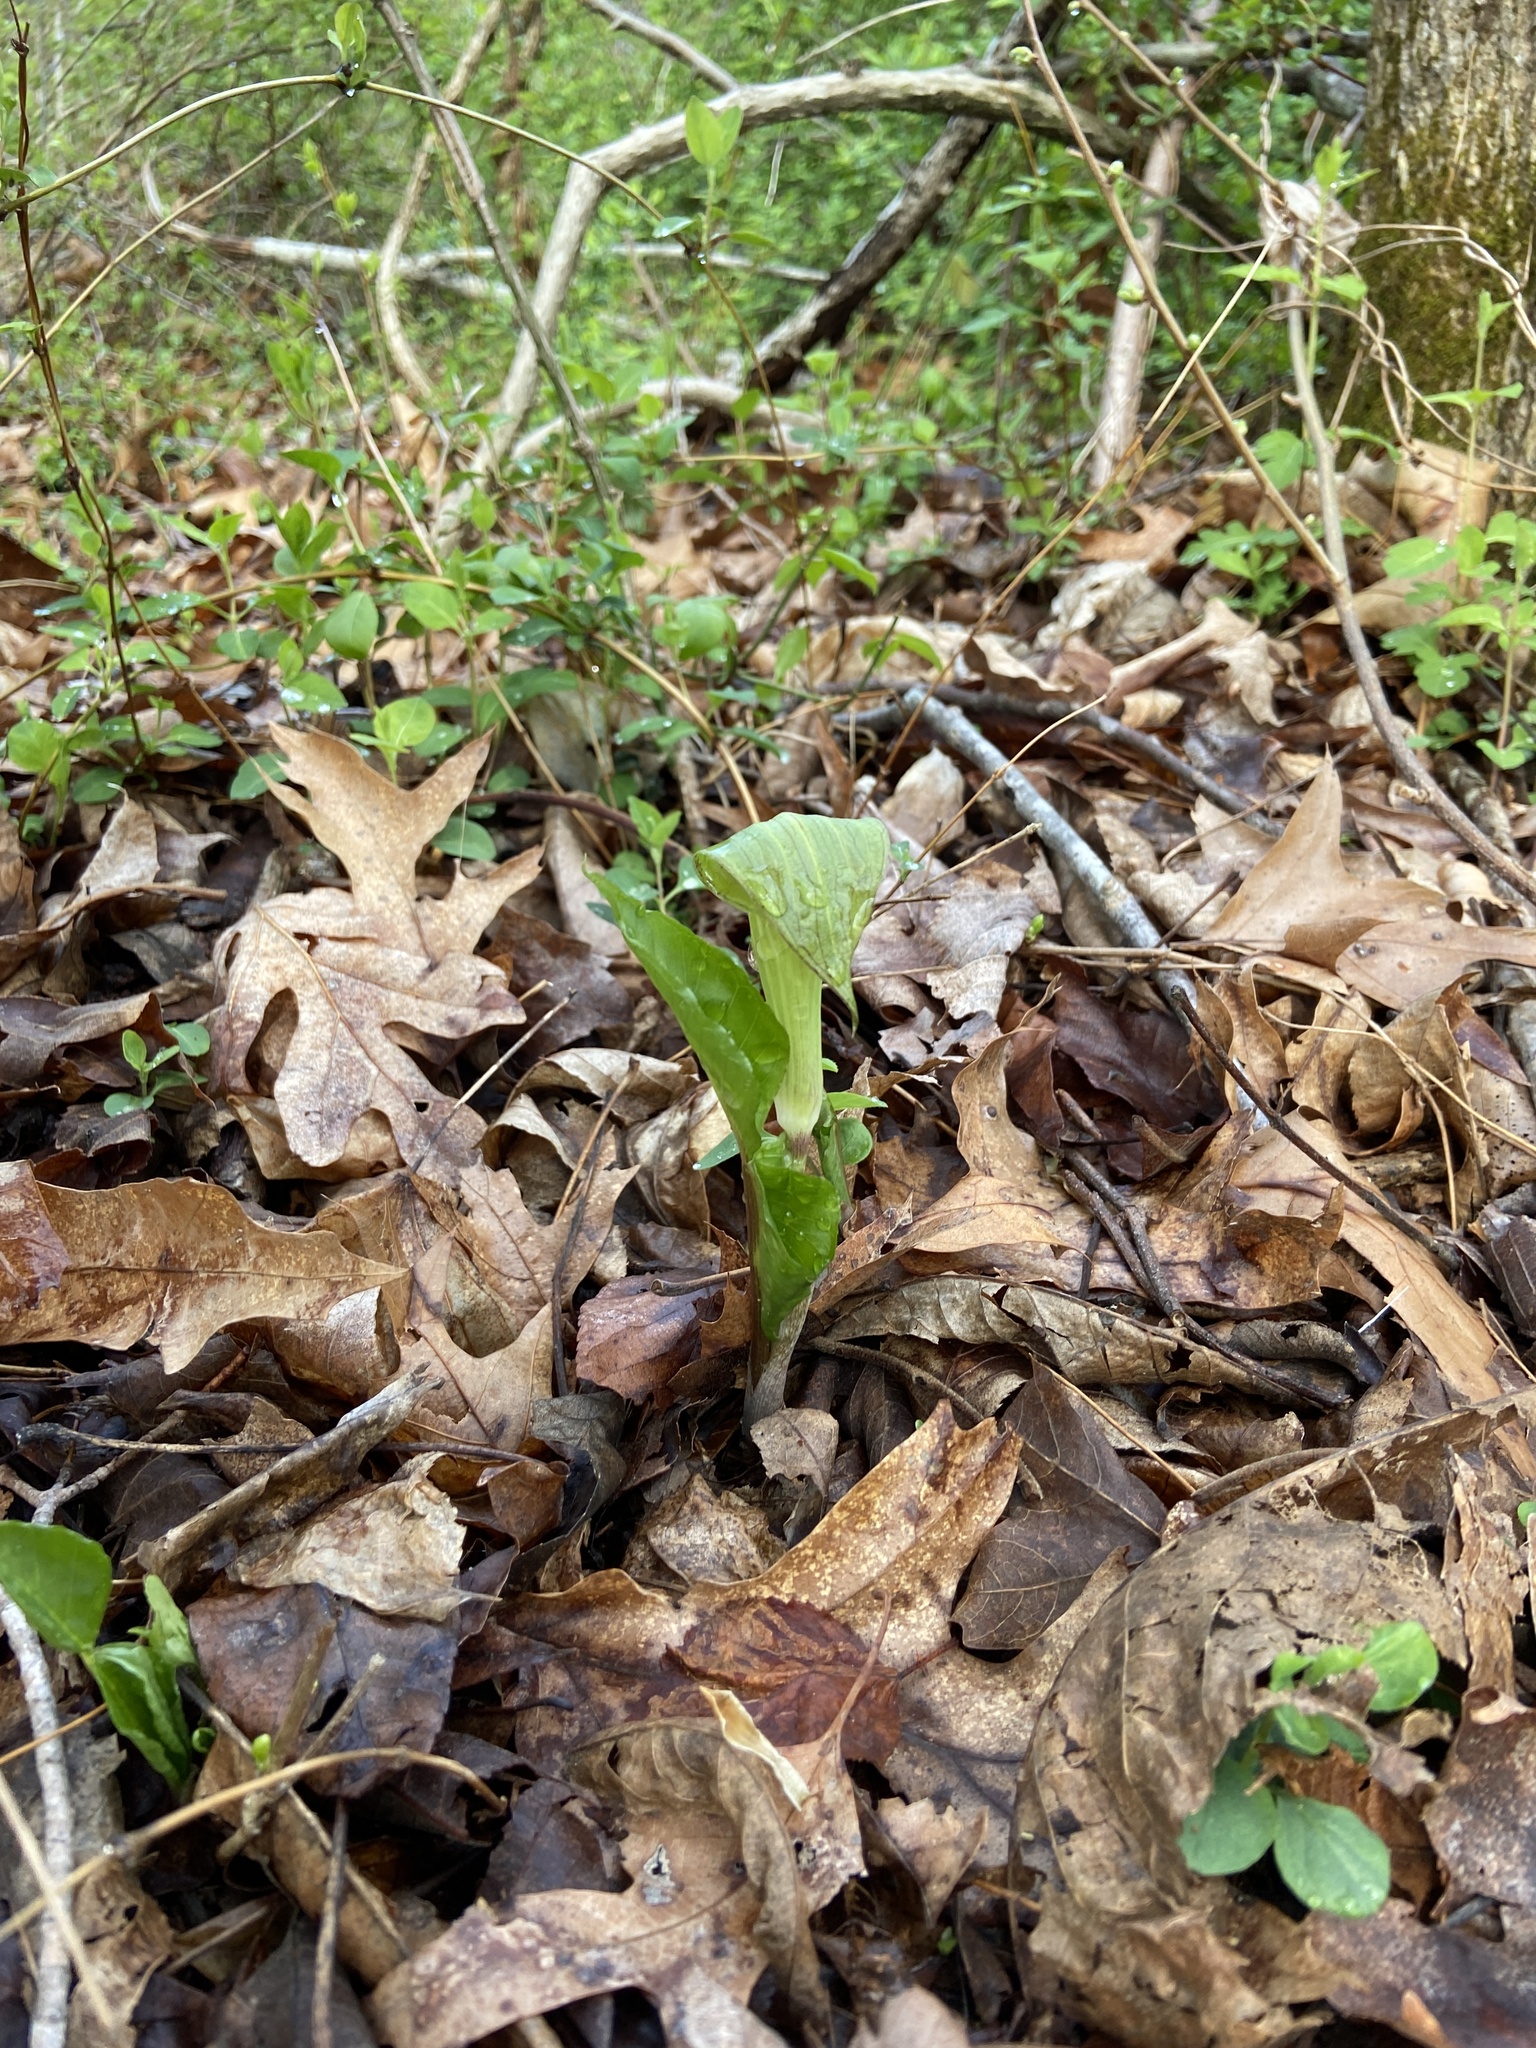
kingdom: Plantae
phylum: Tracheophyta
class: Liliopsida
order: Alismatales
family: Araceae
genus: Arisaema
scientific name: Arisaema triphyllum
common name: Jack-in-the-pulpit
